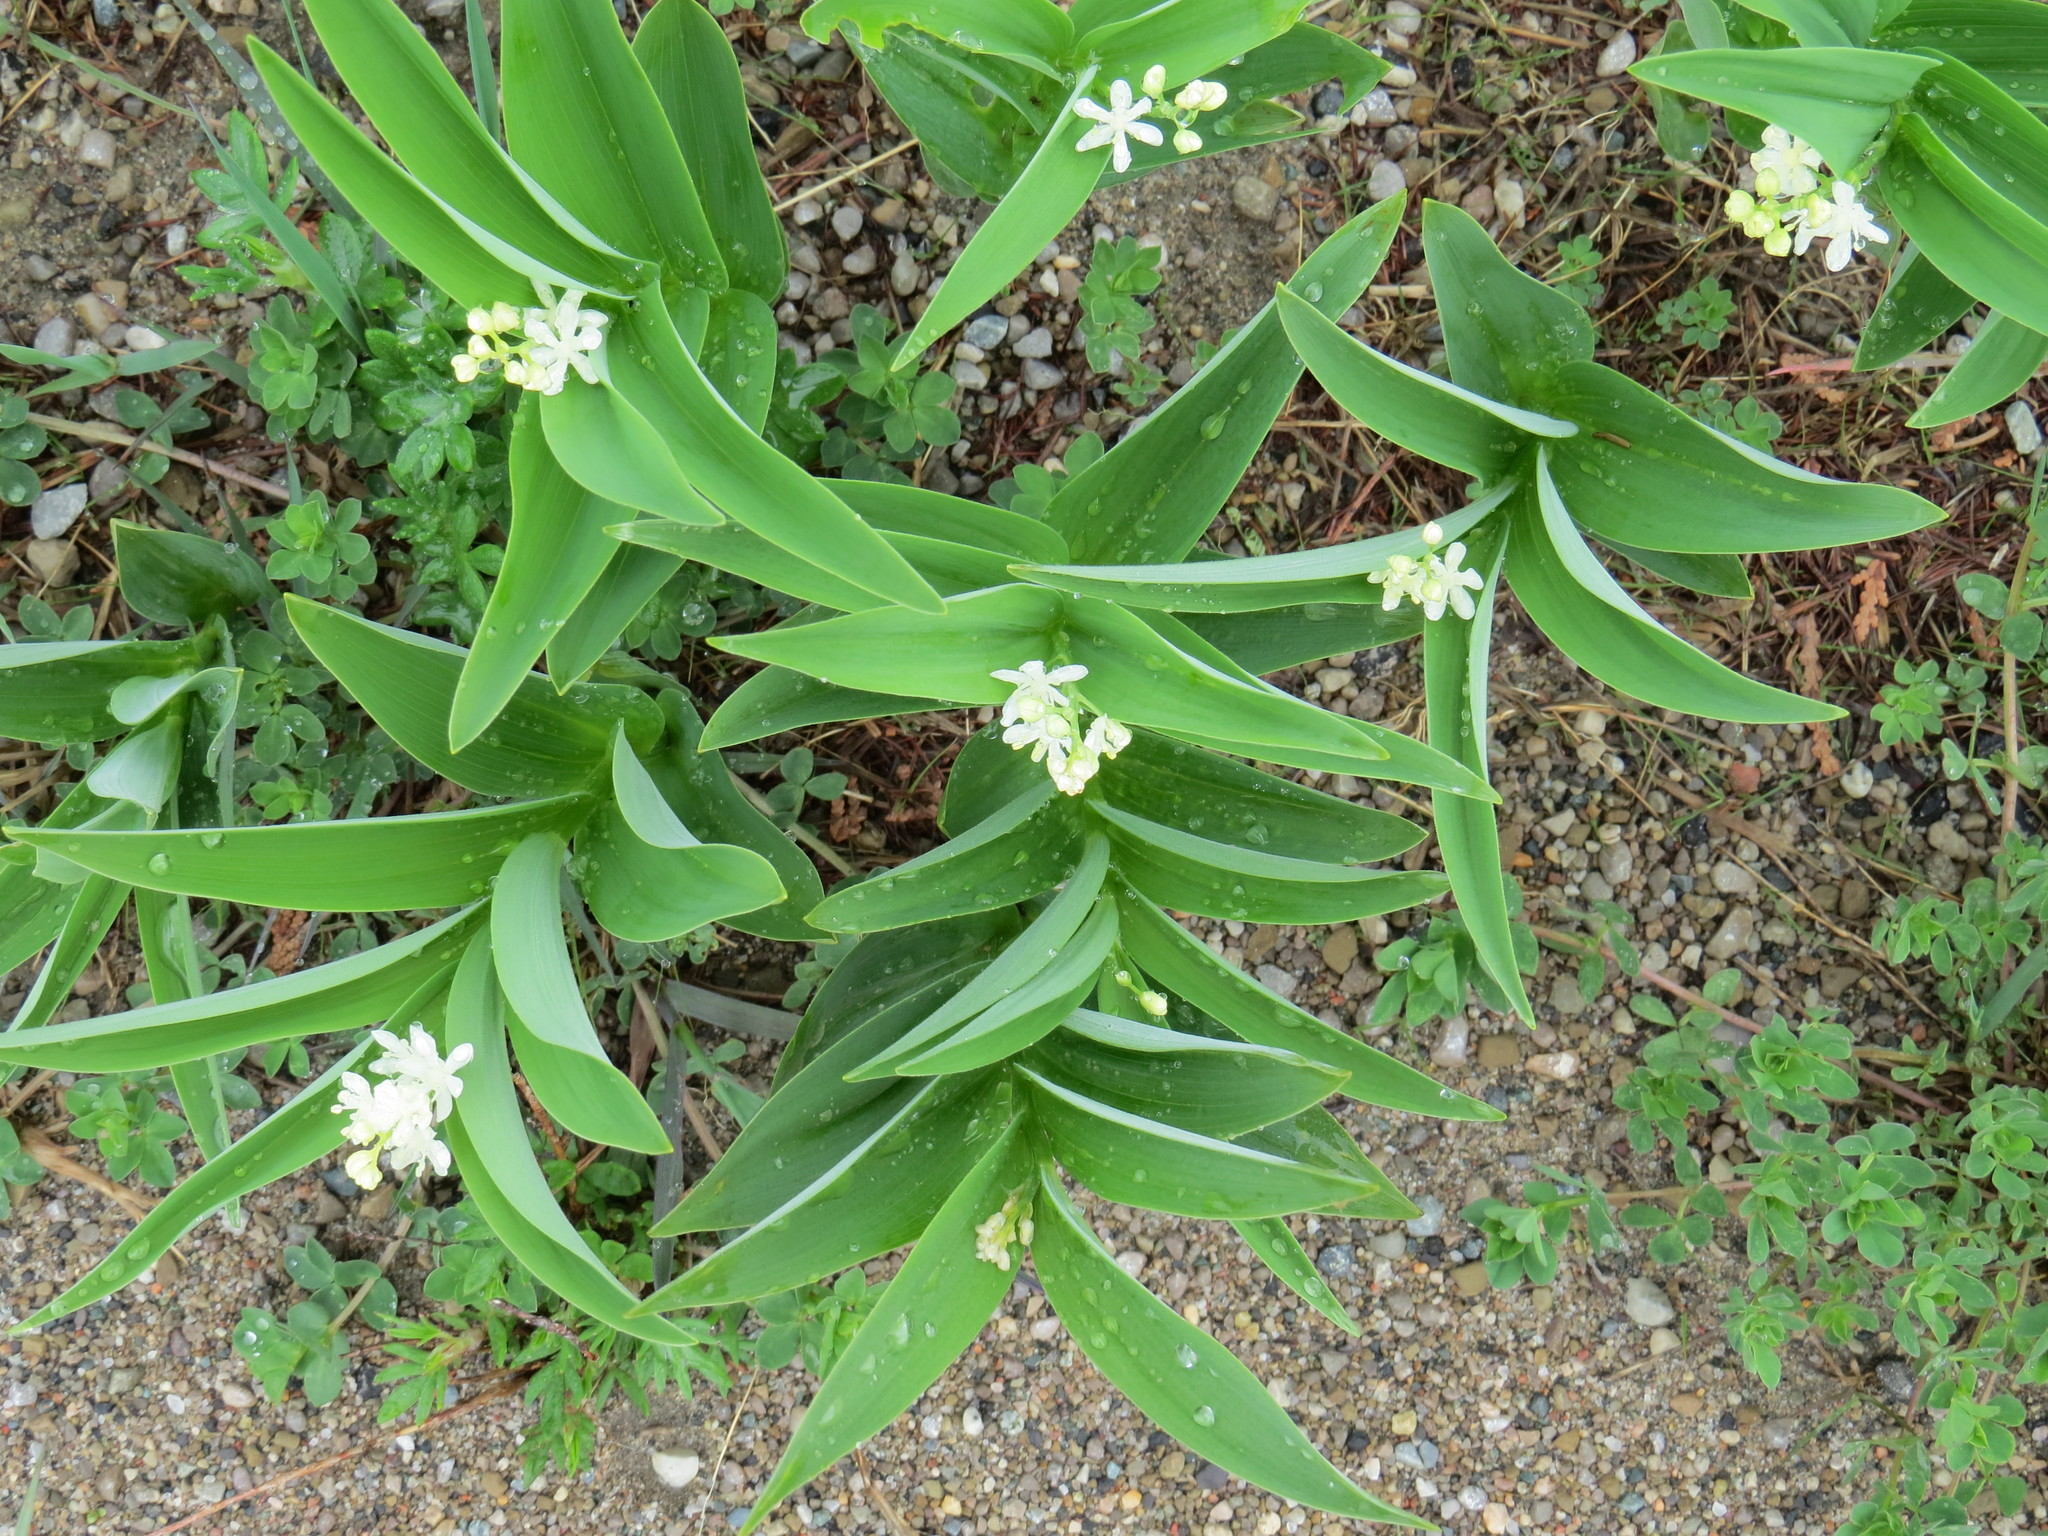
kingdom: Plantae
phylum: Tracheophyta
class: Liliopsida
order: Asparagales
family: Asparagaceae
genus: Maianthemum
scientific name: Maianthemum stellatum
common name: Little false solomon's seal
